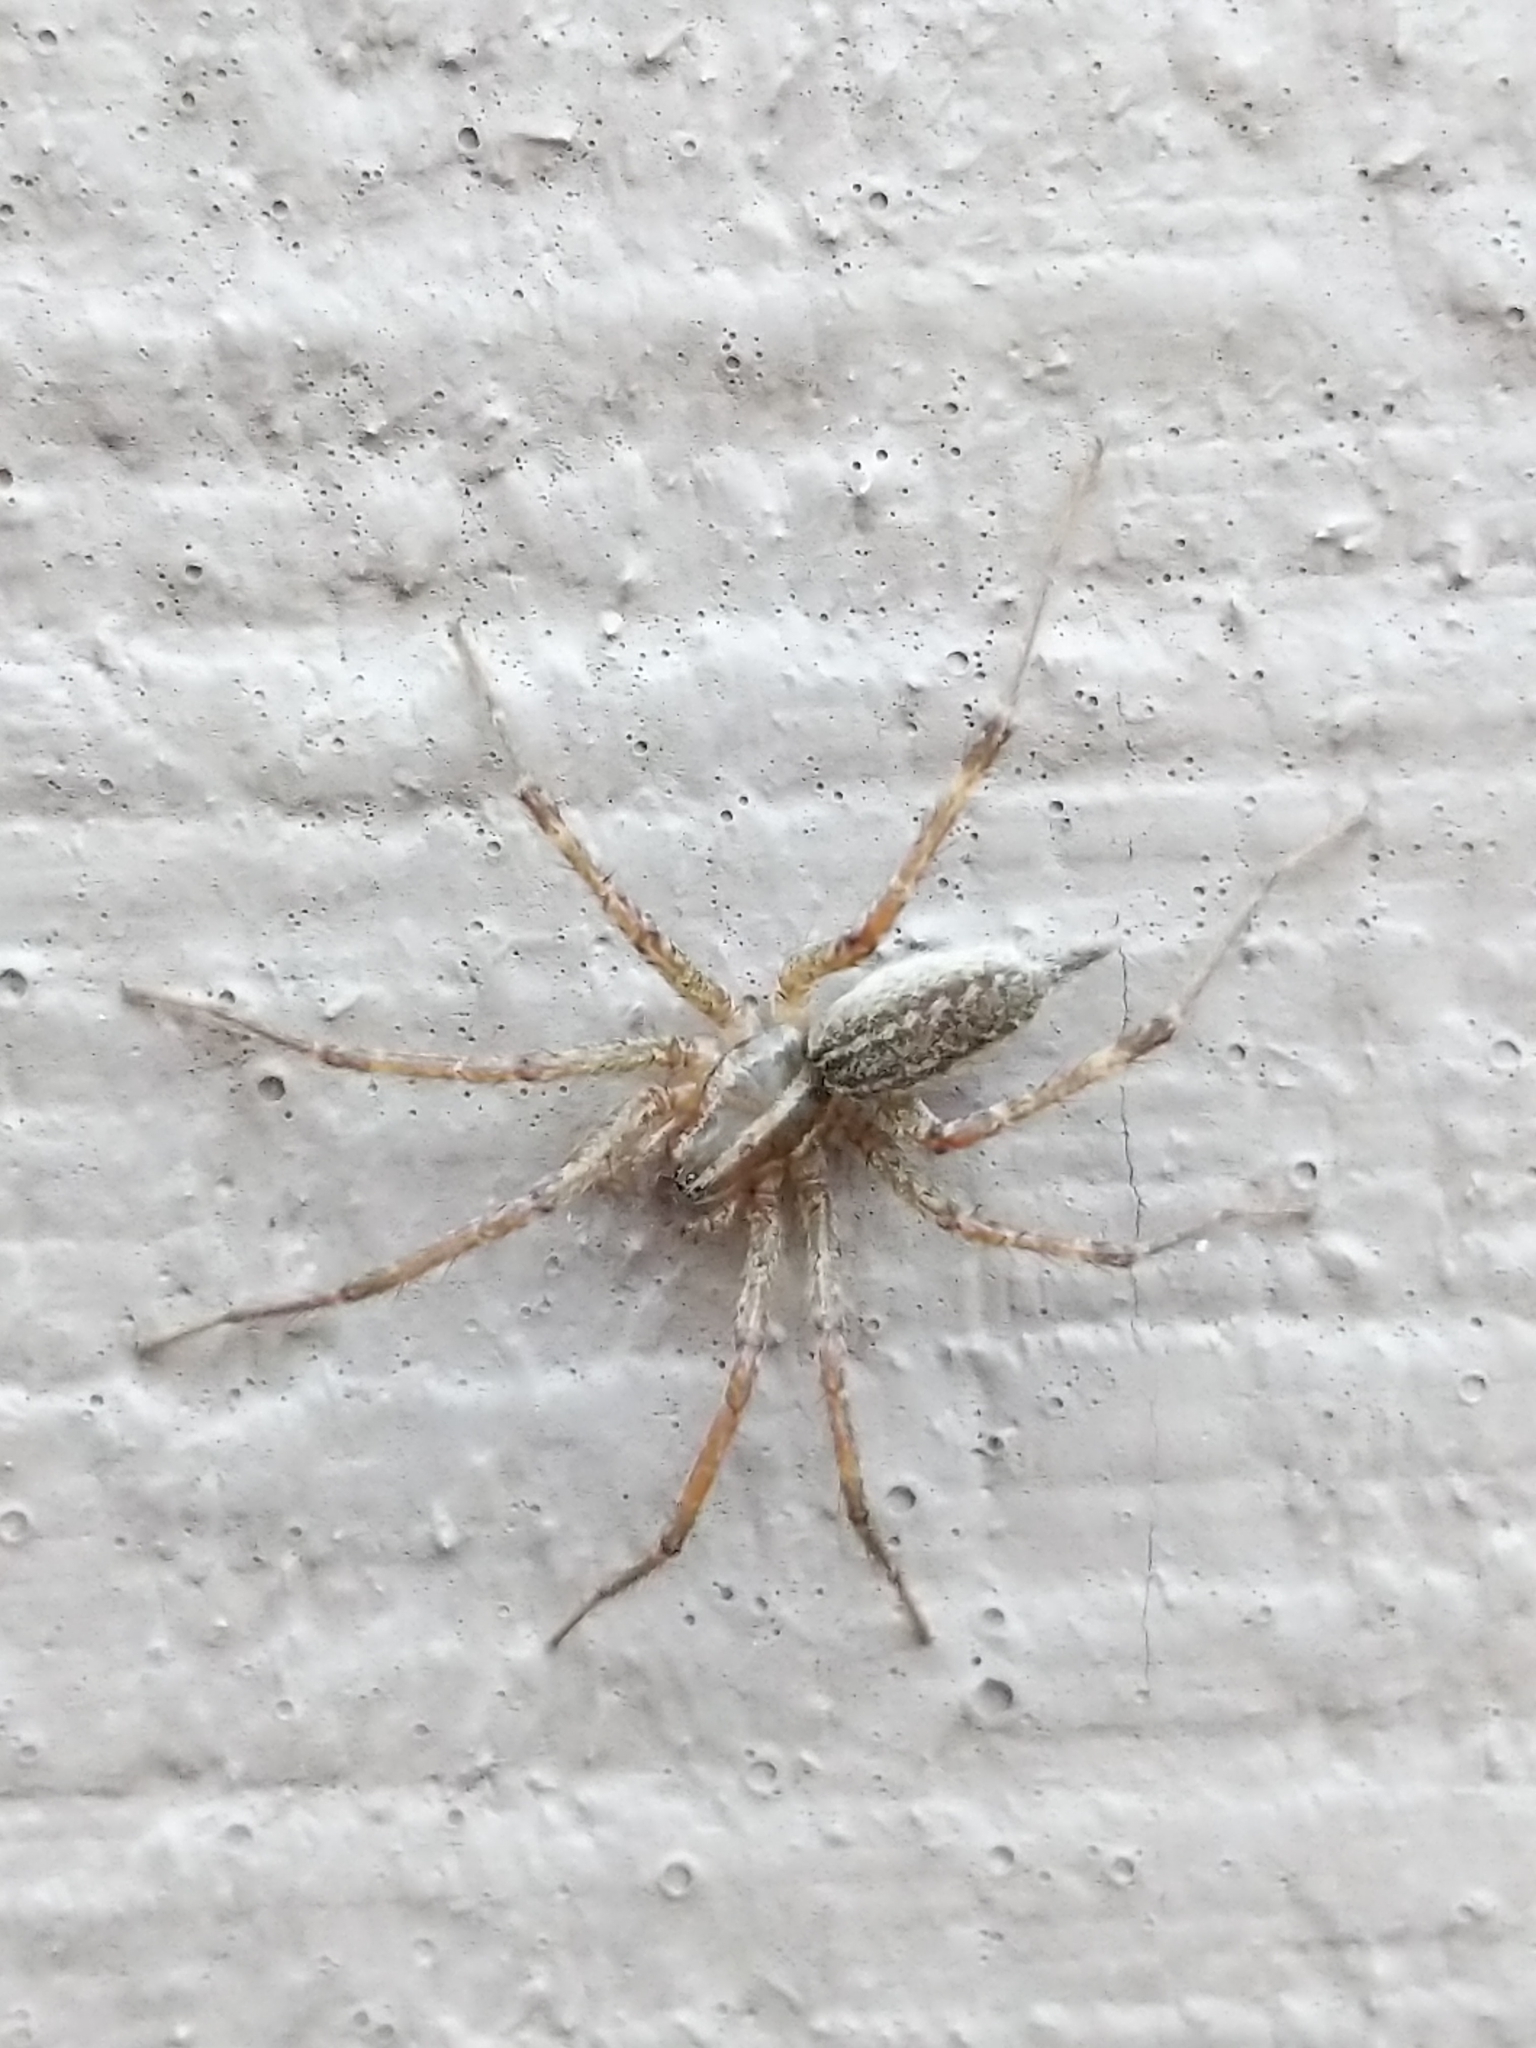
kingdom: Animalia
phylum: Arthropoda
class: Arachnida
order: Araneae
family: Agelenidae
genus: Agelenopsis
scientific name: Agelenopsis
